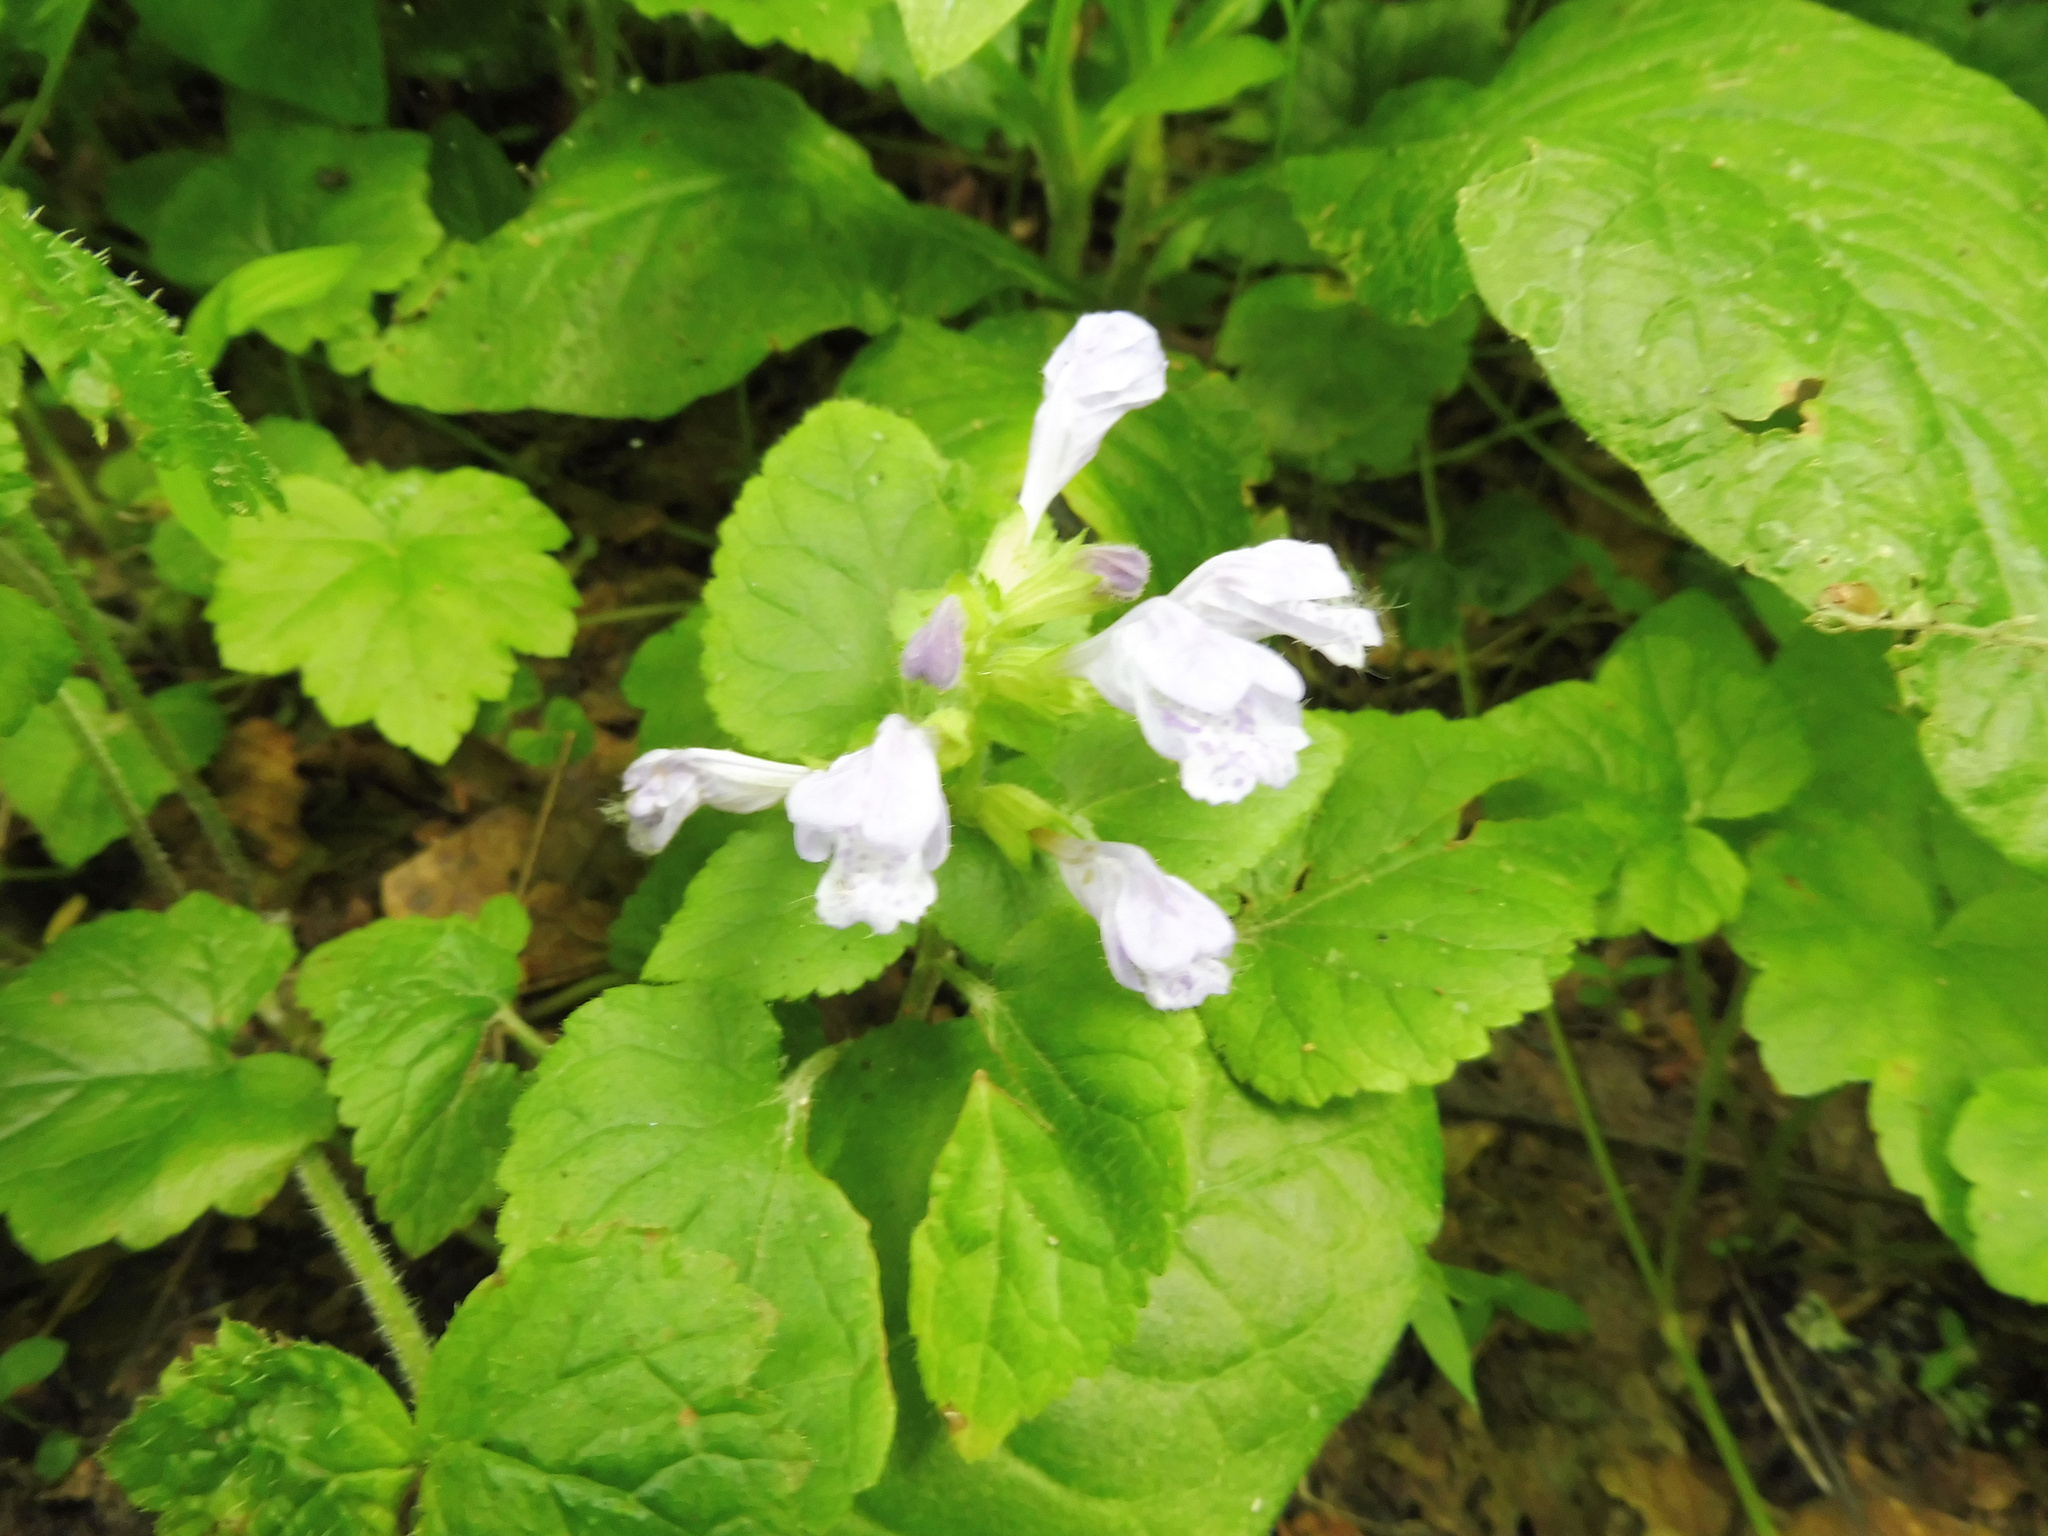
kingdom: Plantae
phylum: Tracheophyta
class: Magnoliopsida
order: Lamiales
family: Lamiaceae
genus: Meehania
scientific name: Meehania cordata
